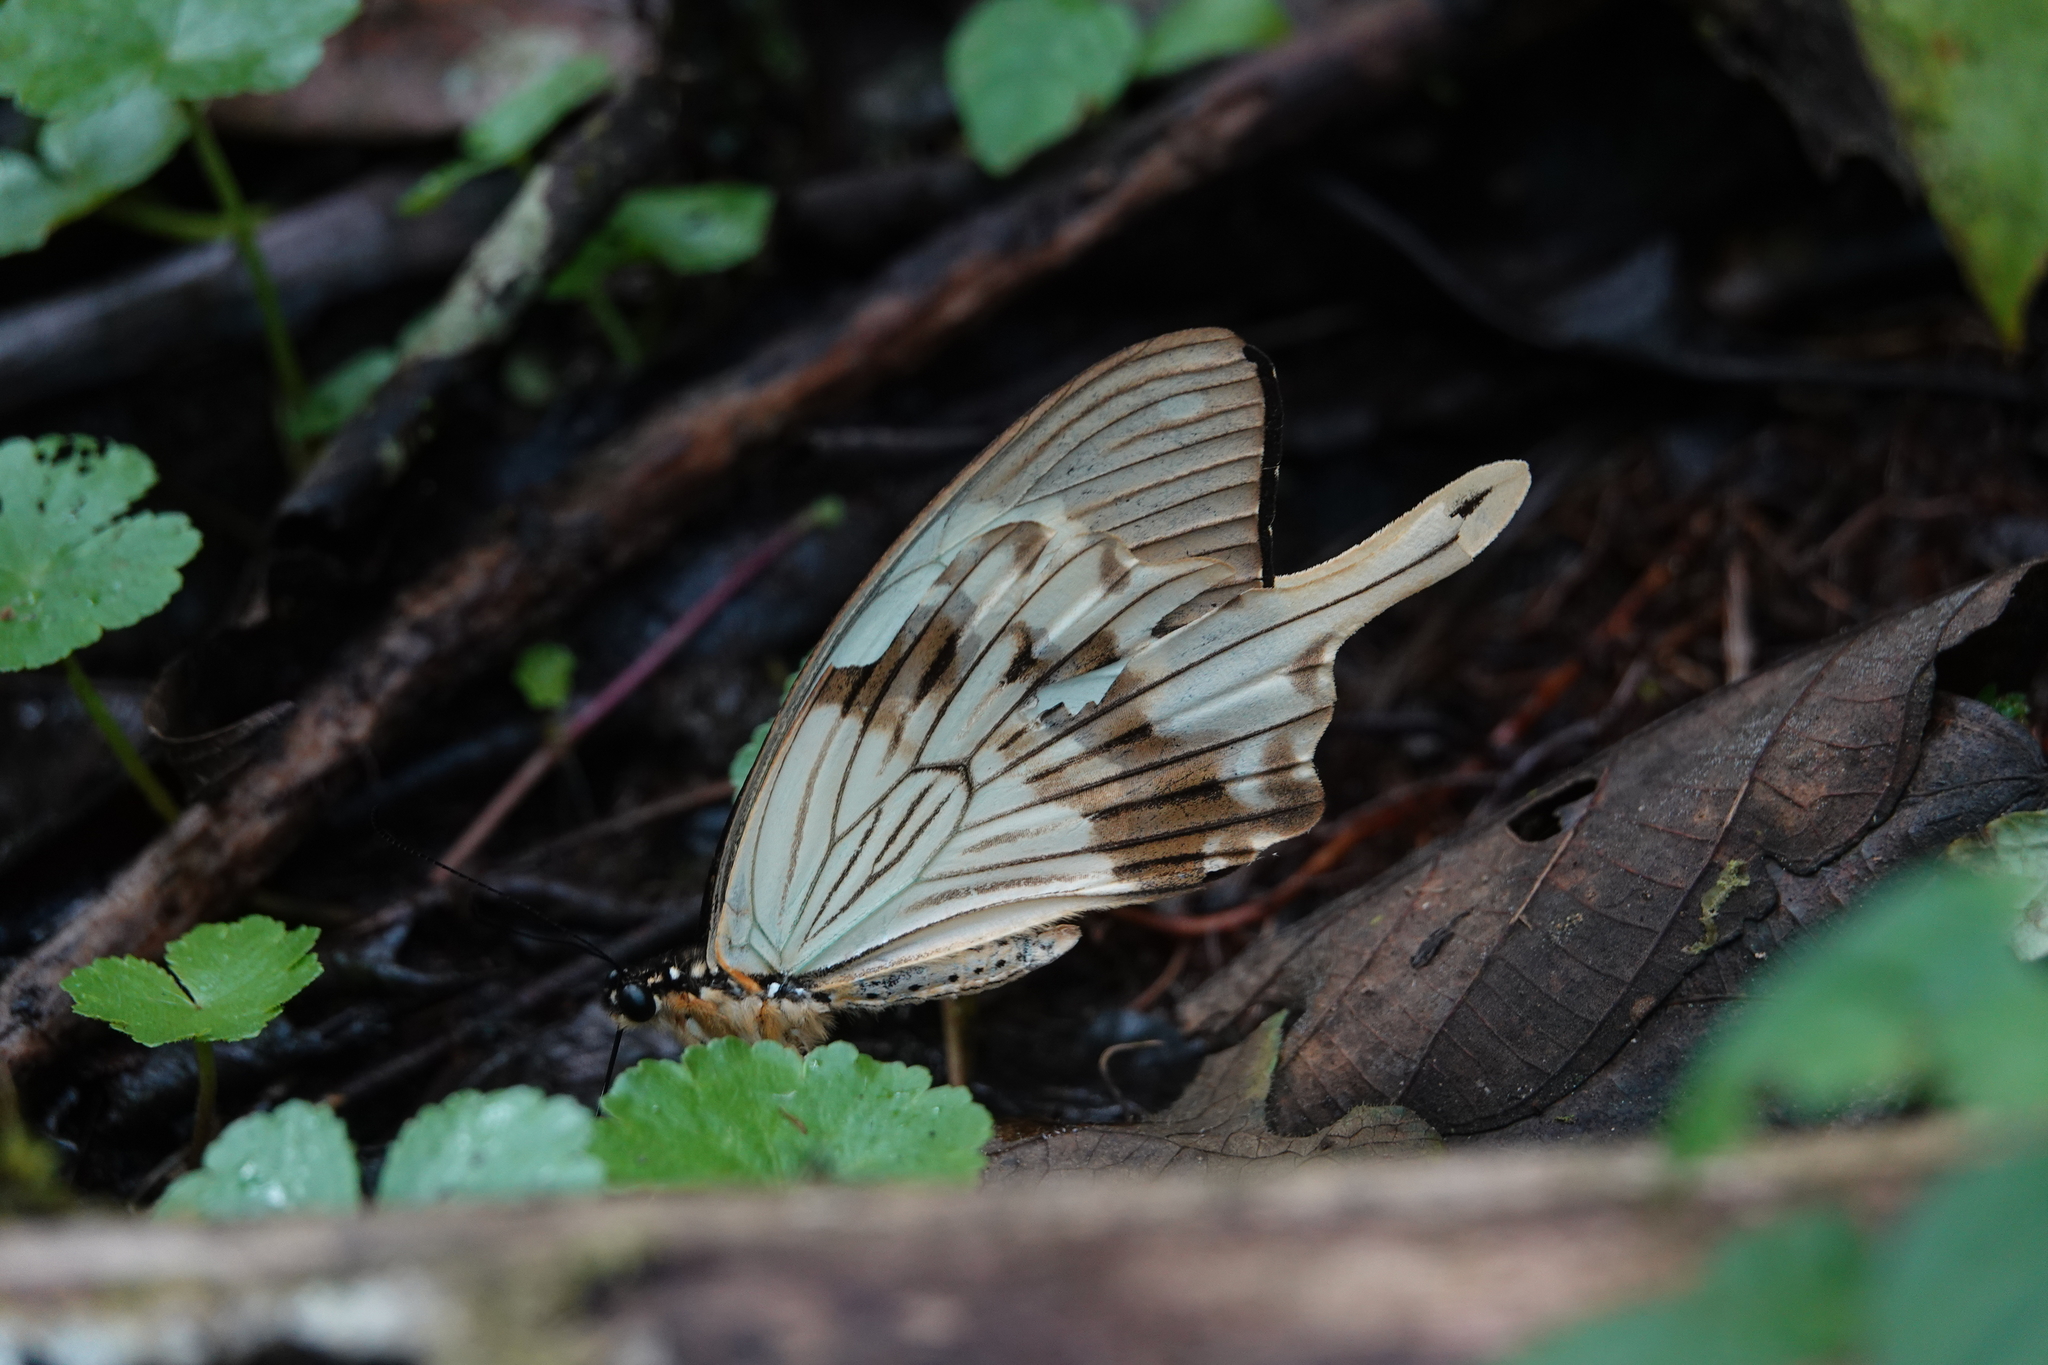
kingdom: Animalia
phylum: Arthropoda
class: Insecta
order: Lepidoptera
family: Papilionidae
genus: Papilio
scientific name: Papilio dardanus
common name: Flying handkerchief
